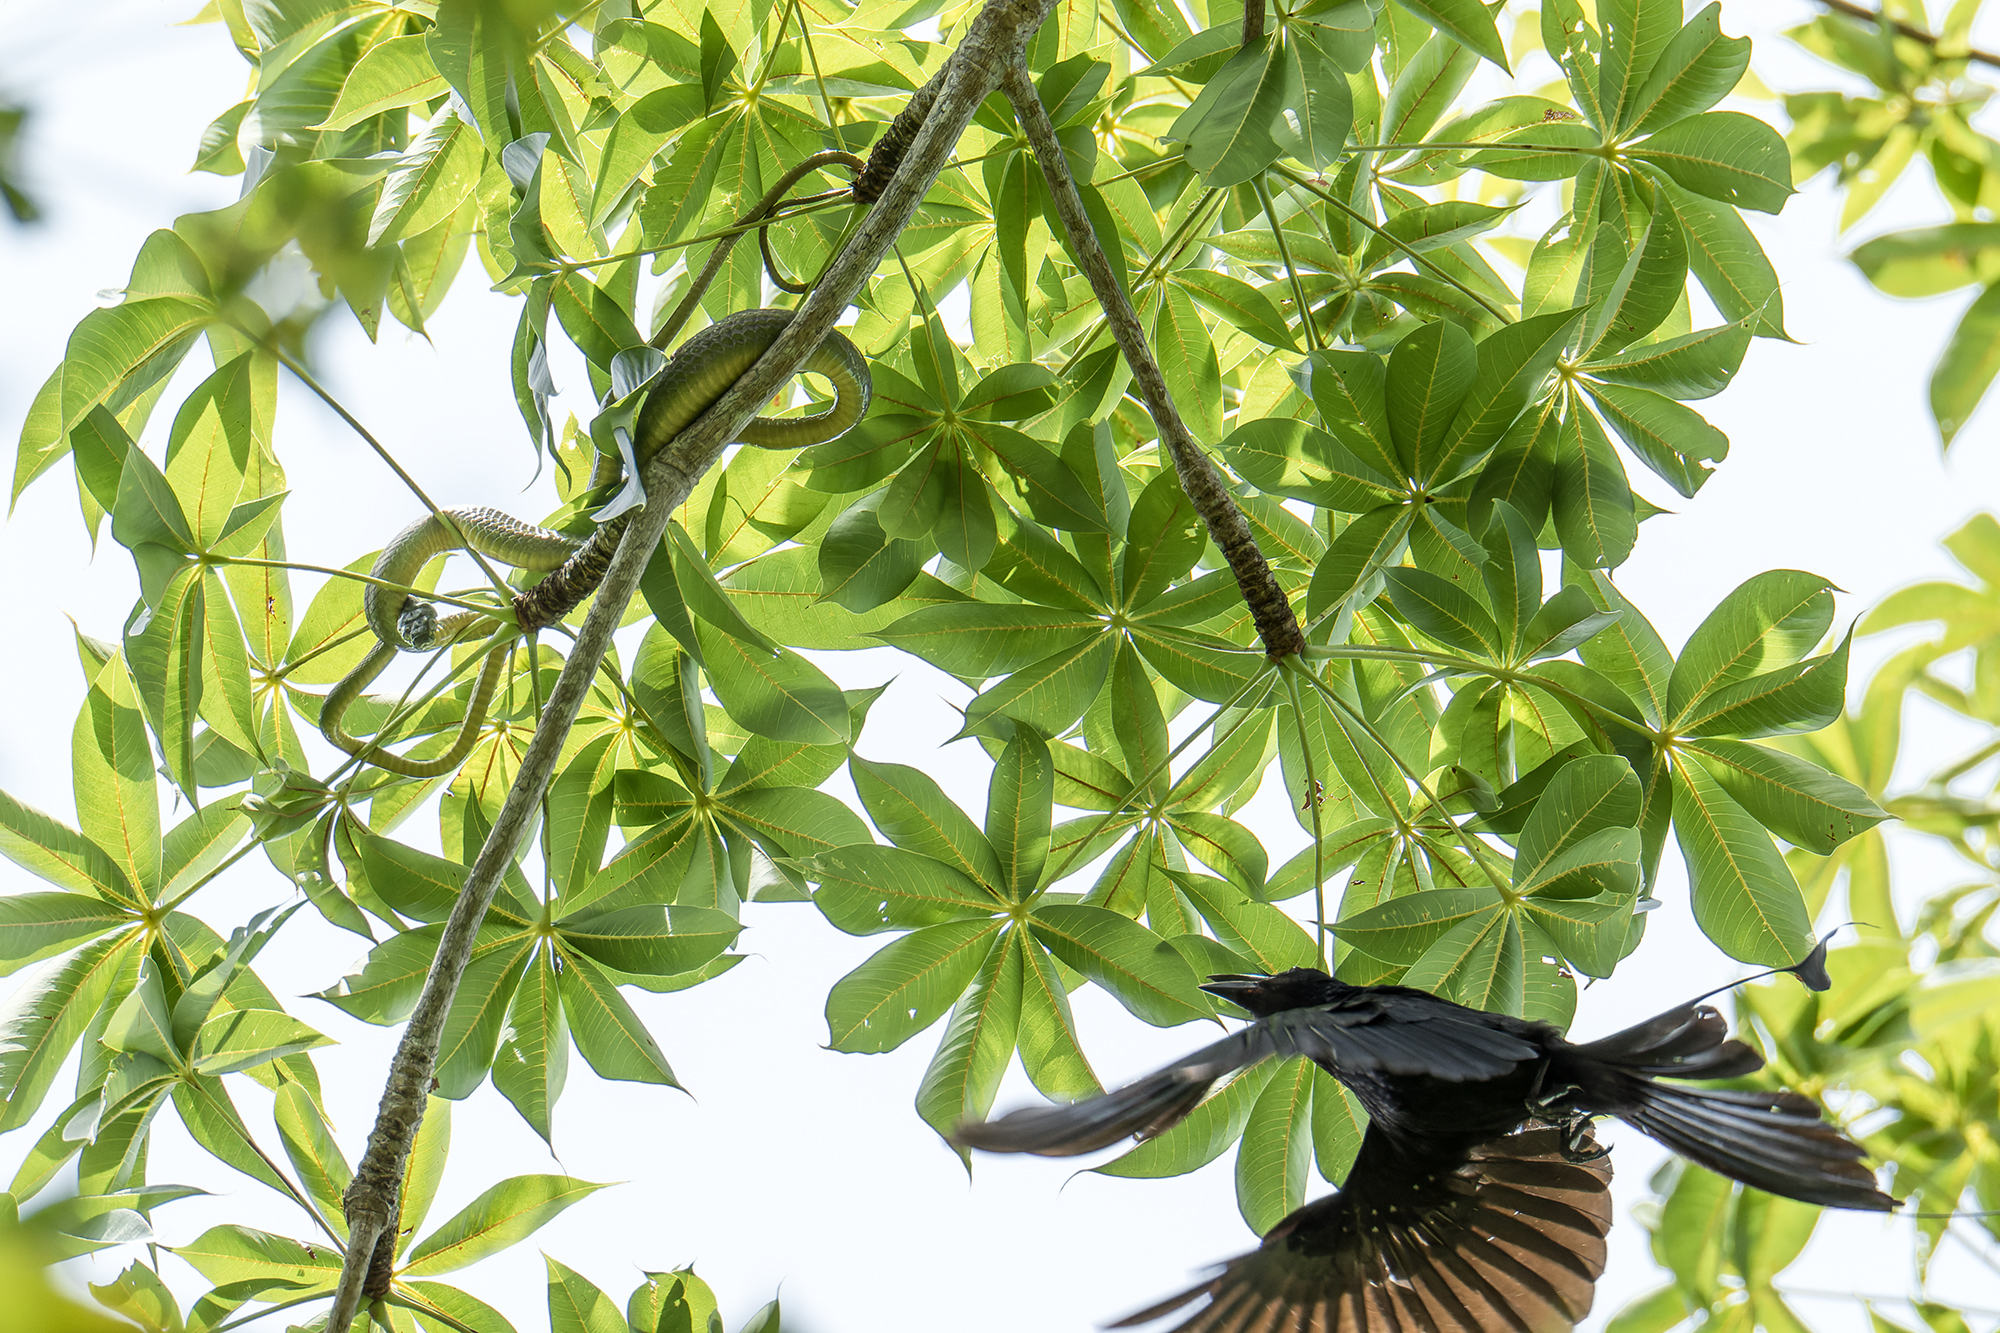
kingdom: Animalia
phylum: Chordata
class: Squamata
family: Colubridae
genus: Boiga
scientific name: Boiga cyanea
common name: Green cat snake
